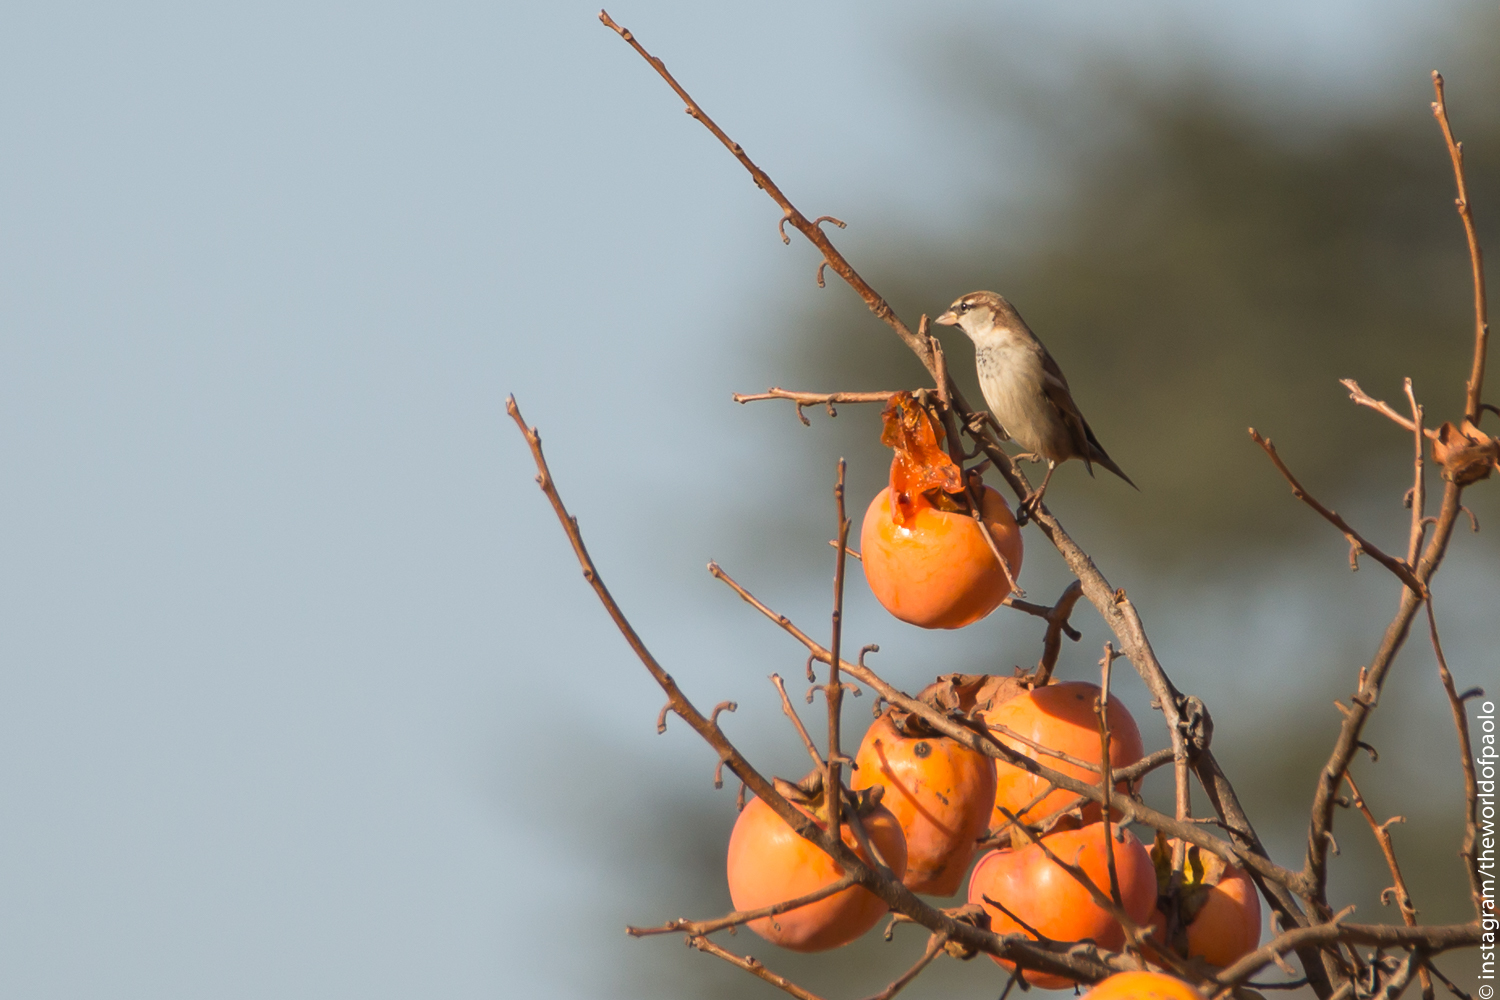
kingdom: Animalia
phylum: Chordata
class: Aves
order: Passeriformes
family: Passeridae
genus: Passer
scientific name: Passer italiae
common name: Italian sparrow
